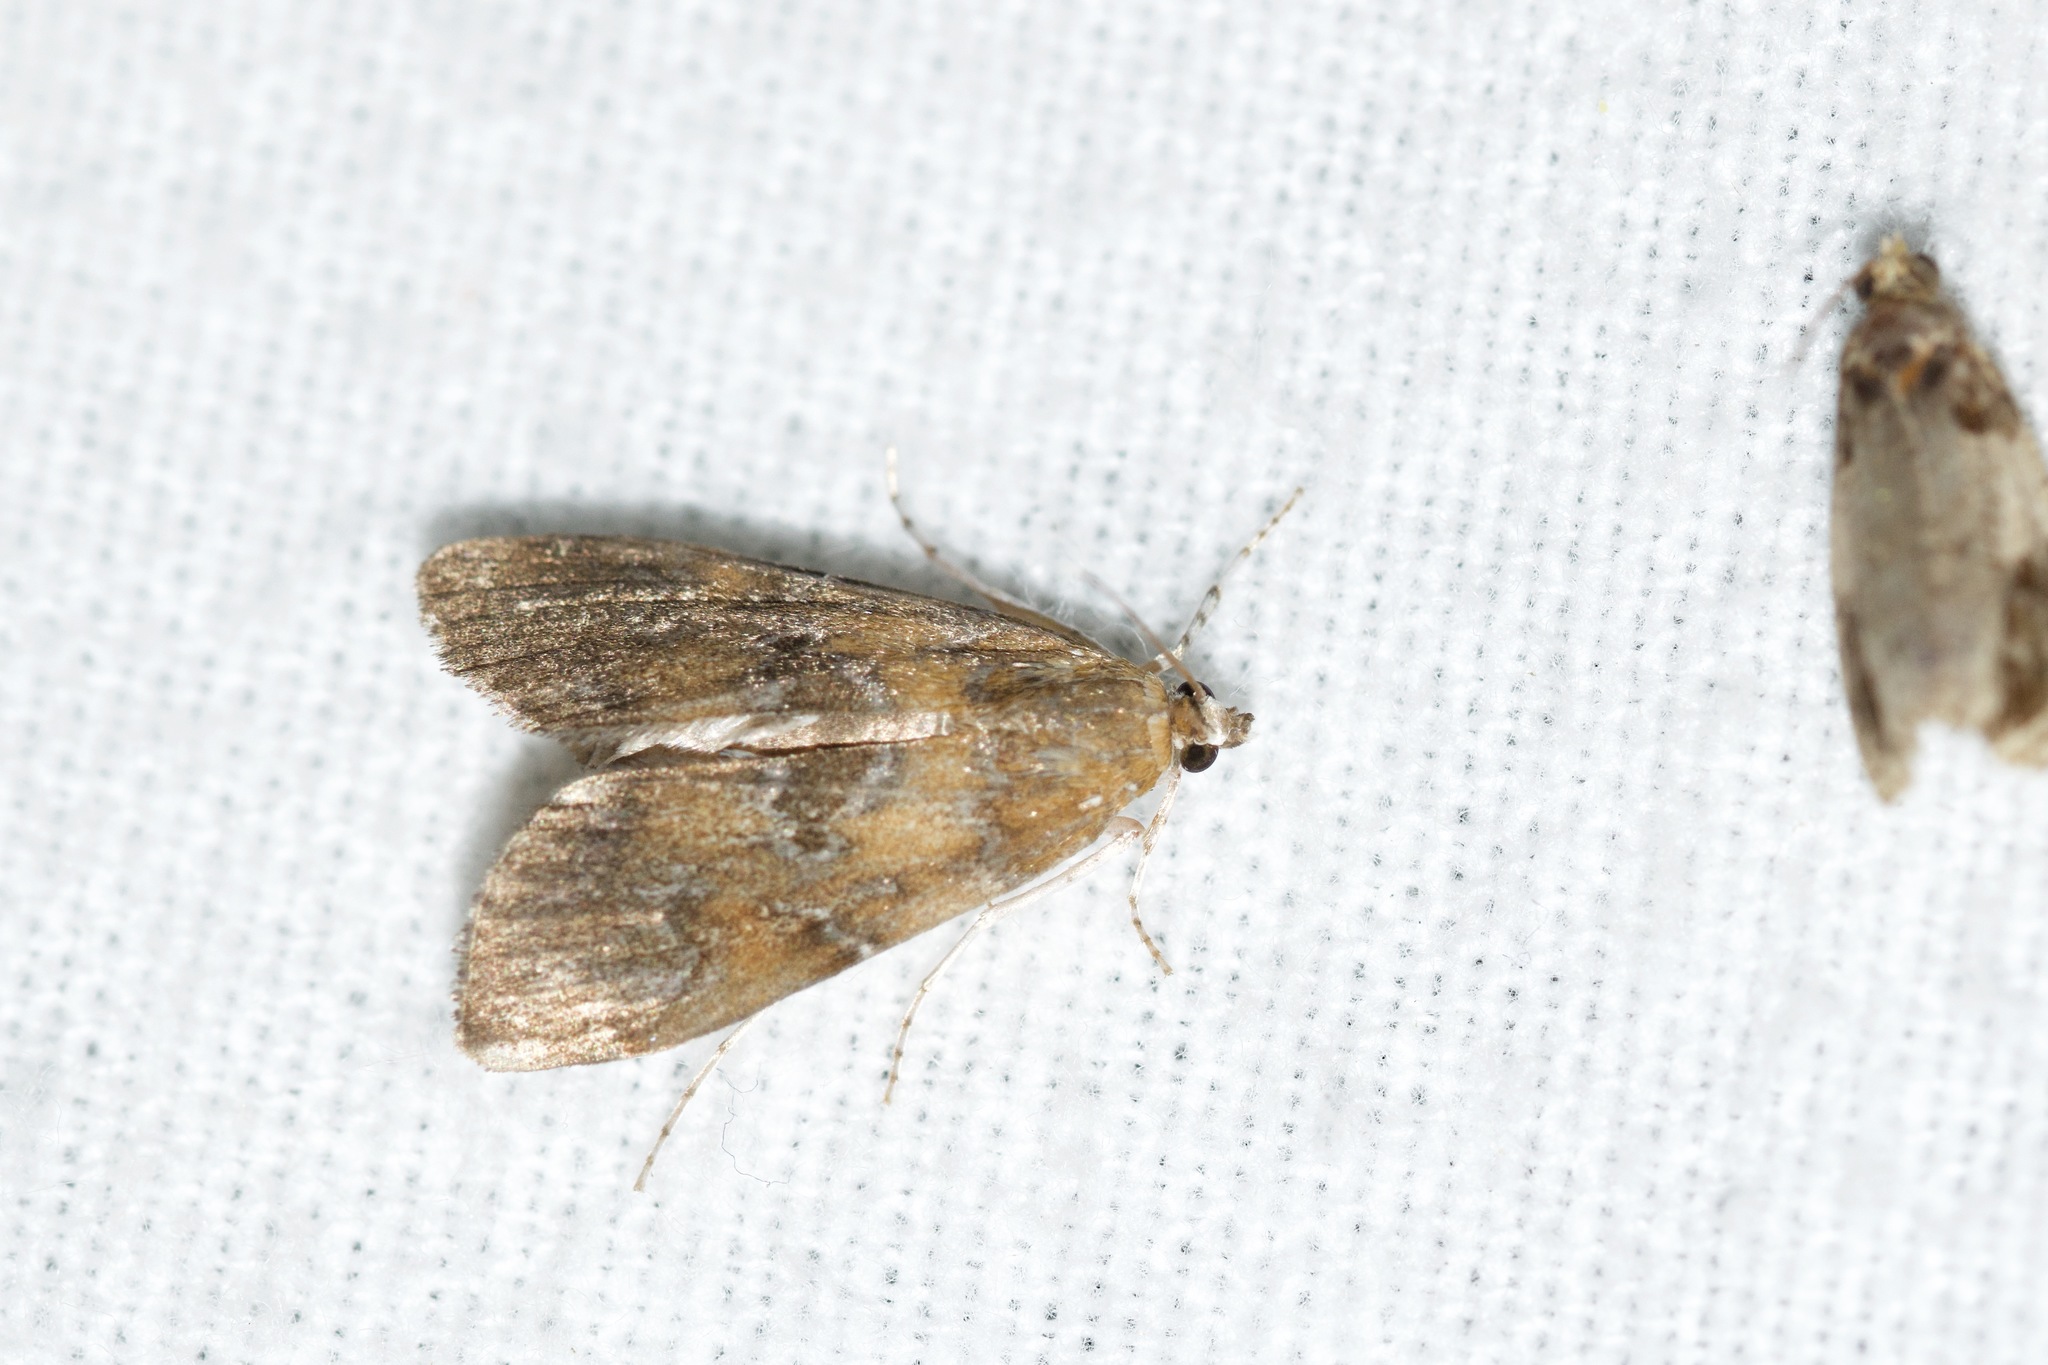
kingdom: Animalia
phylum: Arthropoda
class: Insecta
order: Lepidoptera
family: Crambidae
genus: Elophila
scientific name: Elophila gyralis
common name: Waterlily borer moth
